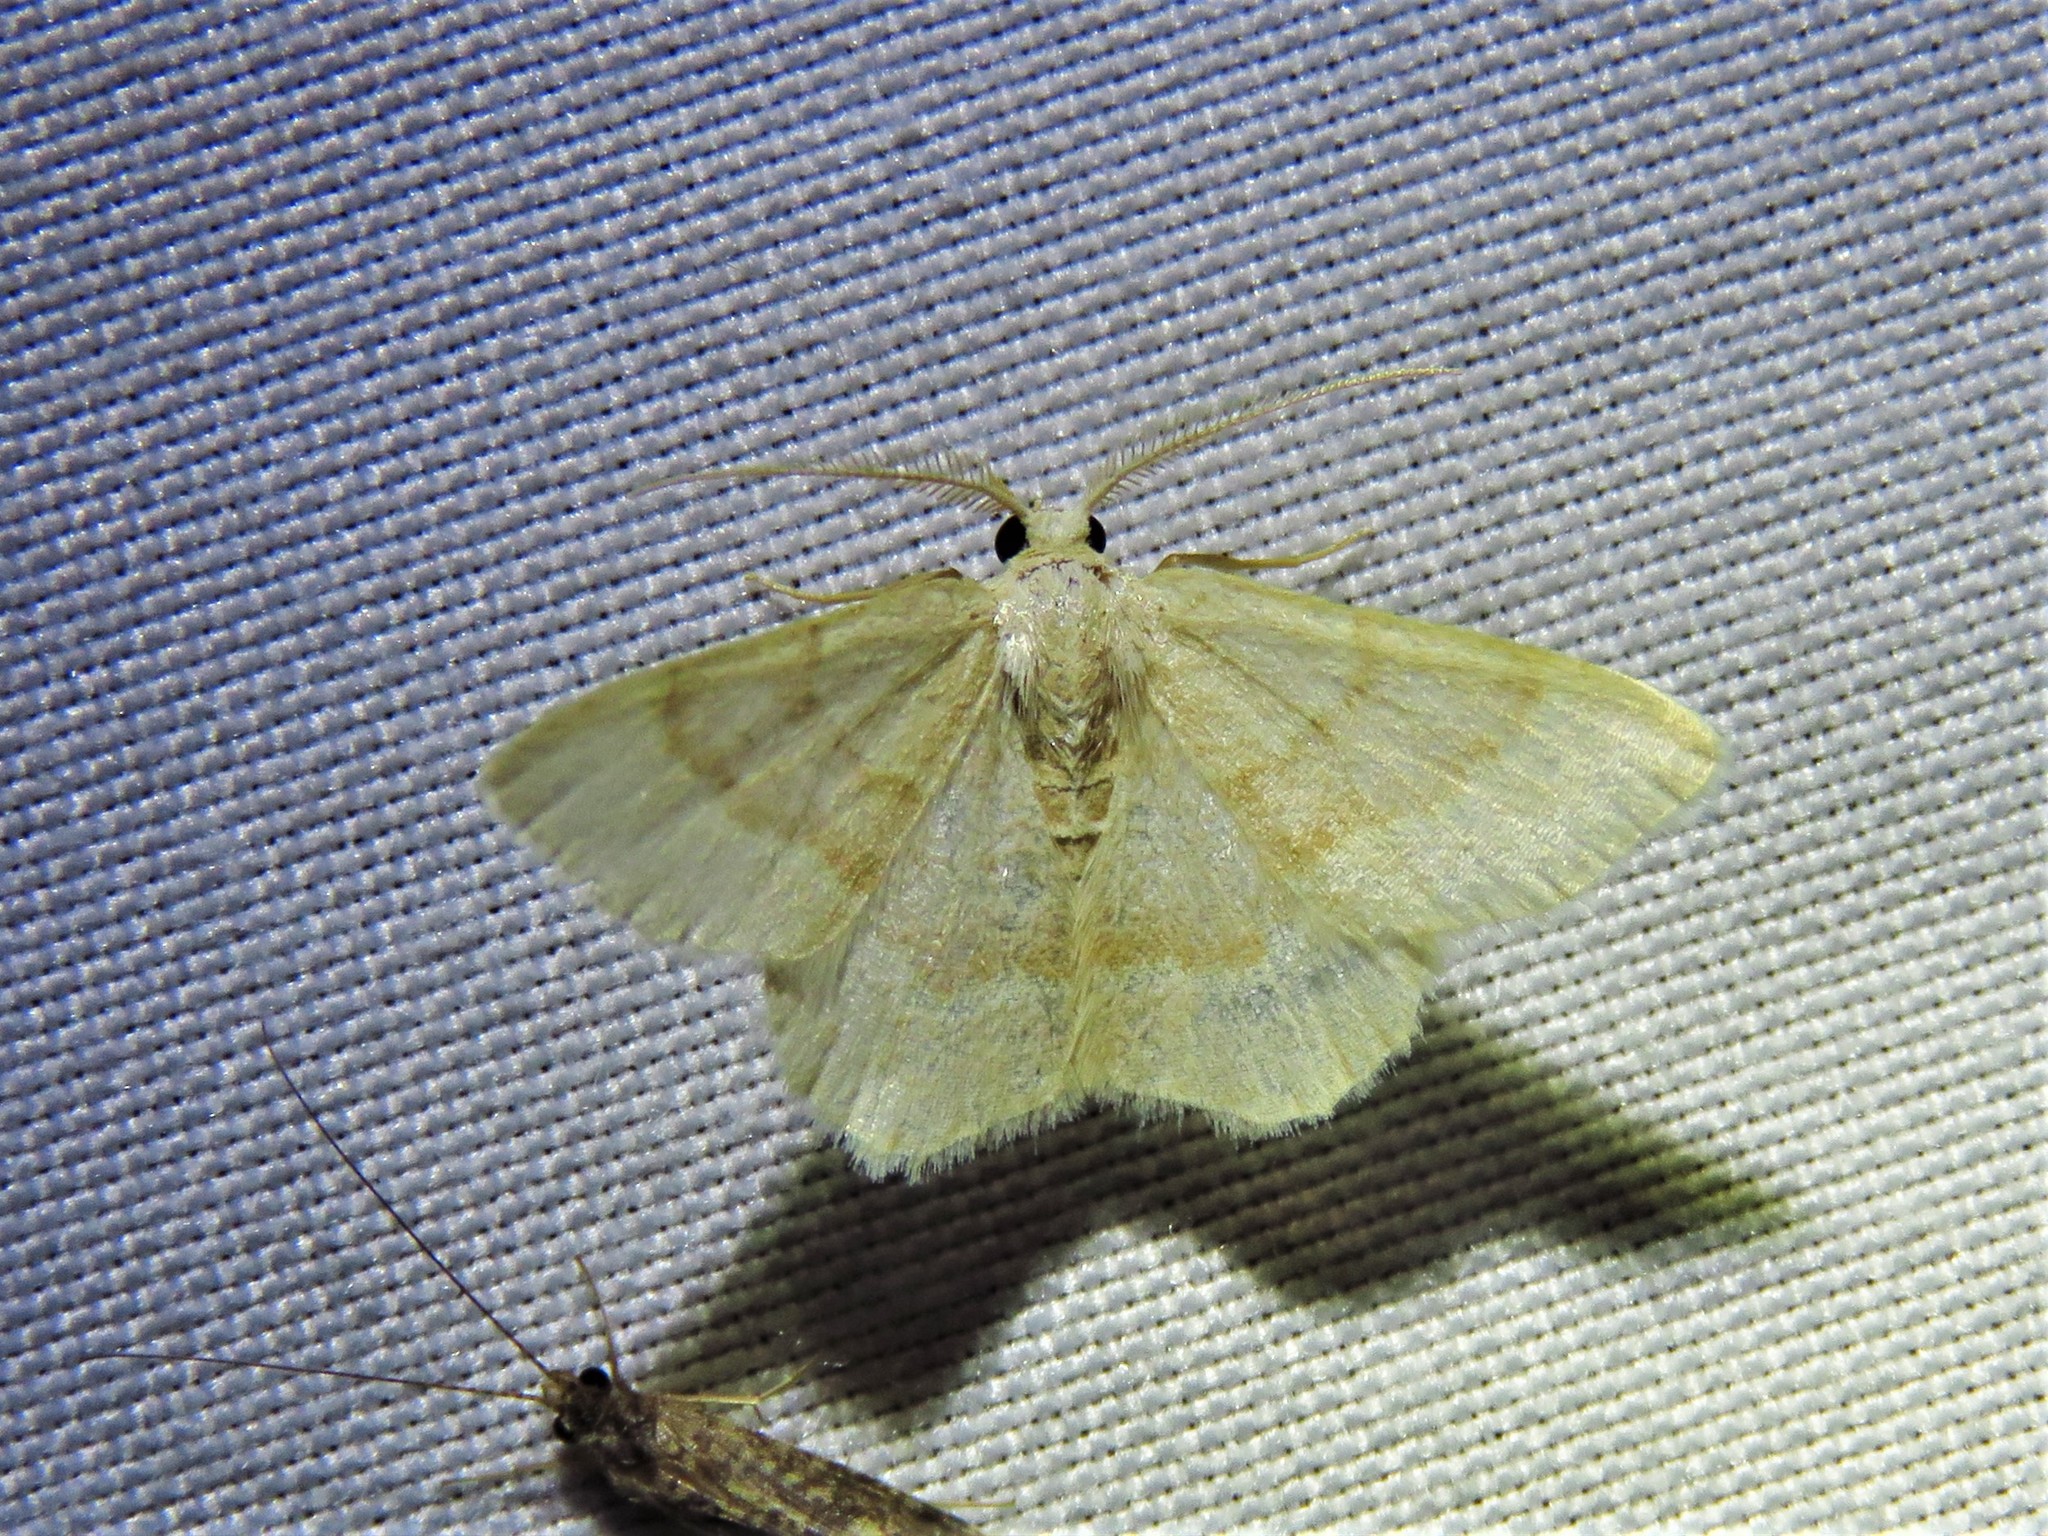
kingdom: Animalia
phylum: Arthropoda
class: Insecta
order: Lepidoptera
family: Geometridae
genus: Chlorochlamys
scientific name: Chlorochlamys appellaria
